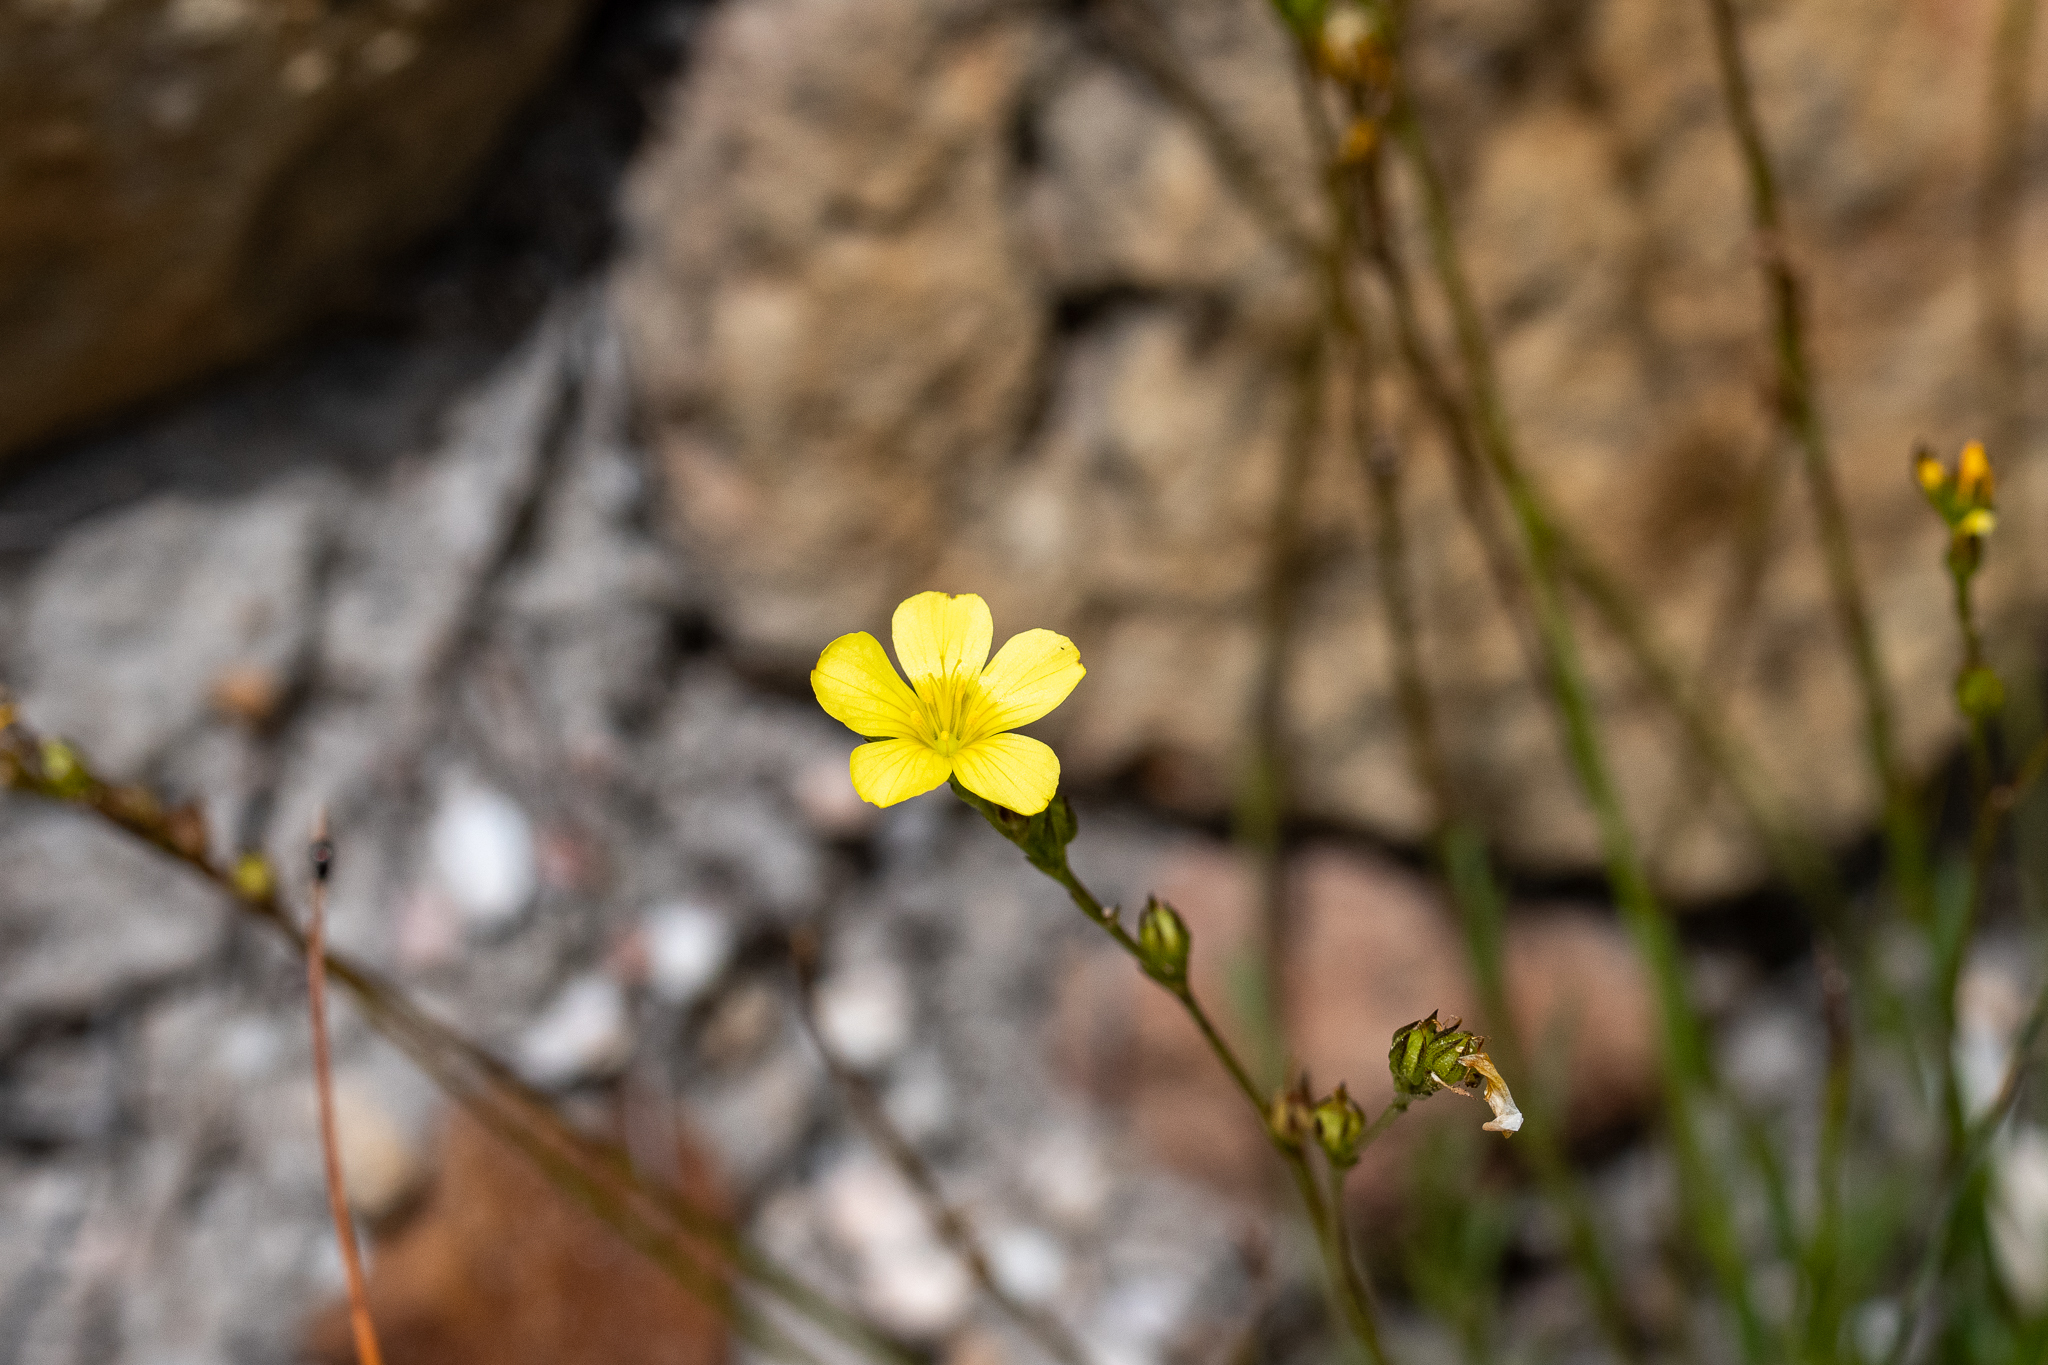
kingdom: Plantae
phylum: Tracheophyta
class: Magnoliopsida
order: Malpighiales
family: Linaceae
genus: Linum
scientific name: Linum africanum
